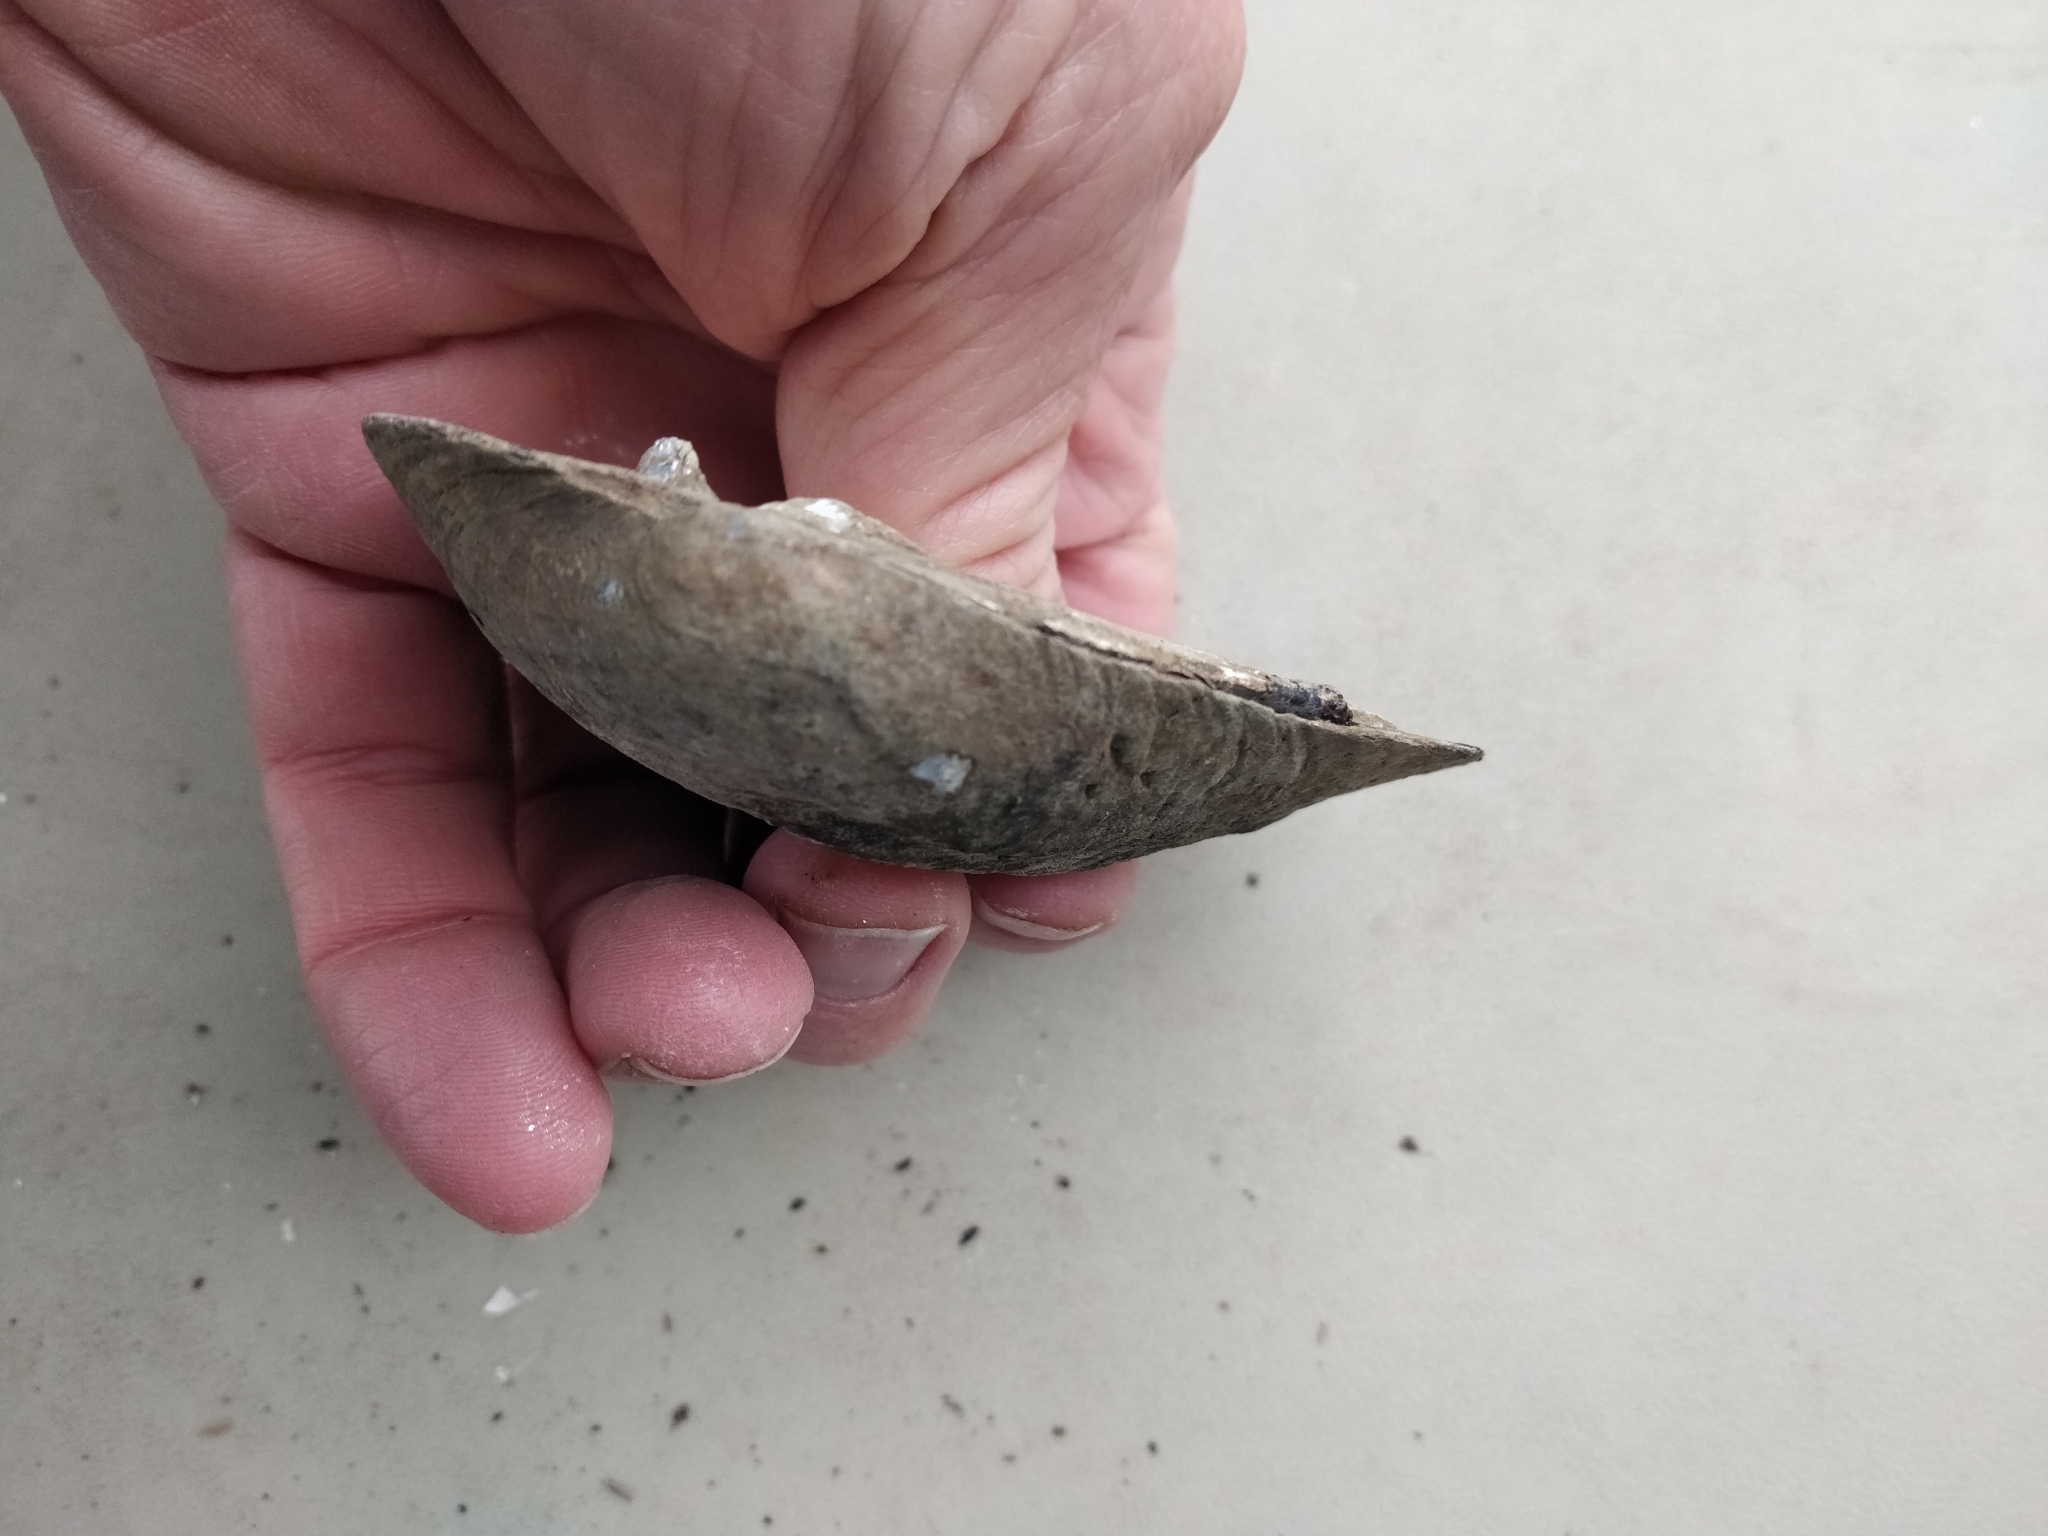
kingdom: Animalia
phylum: Mollusca
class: Bivalvia
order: Unionida
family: Unionidae
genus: Amblema
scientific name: Amblema plicata
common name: Threeridge
